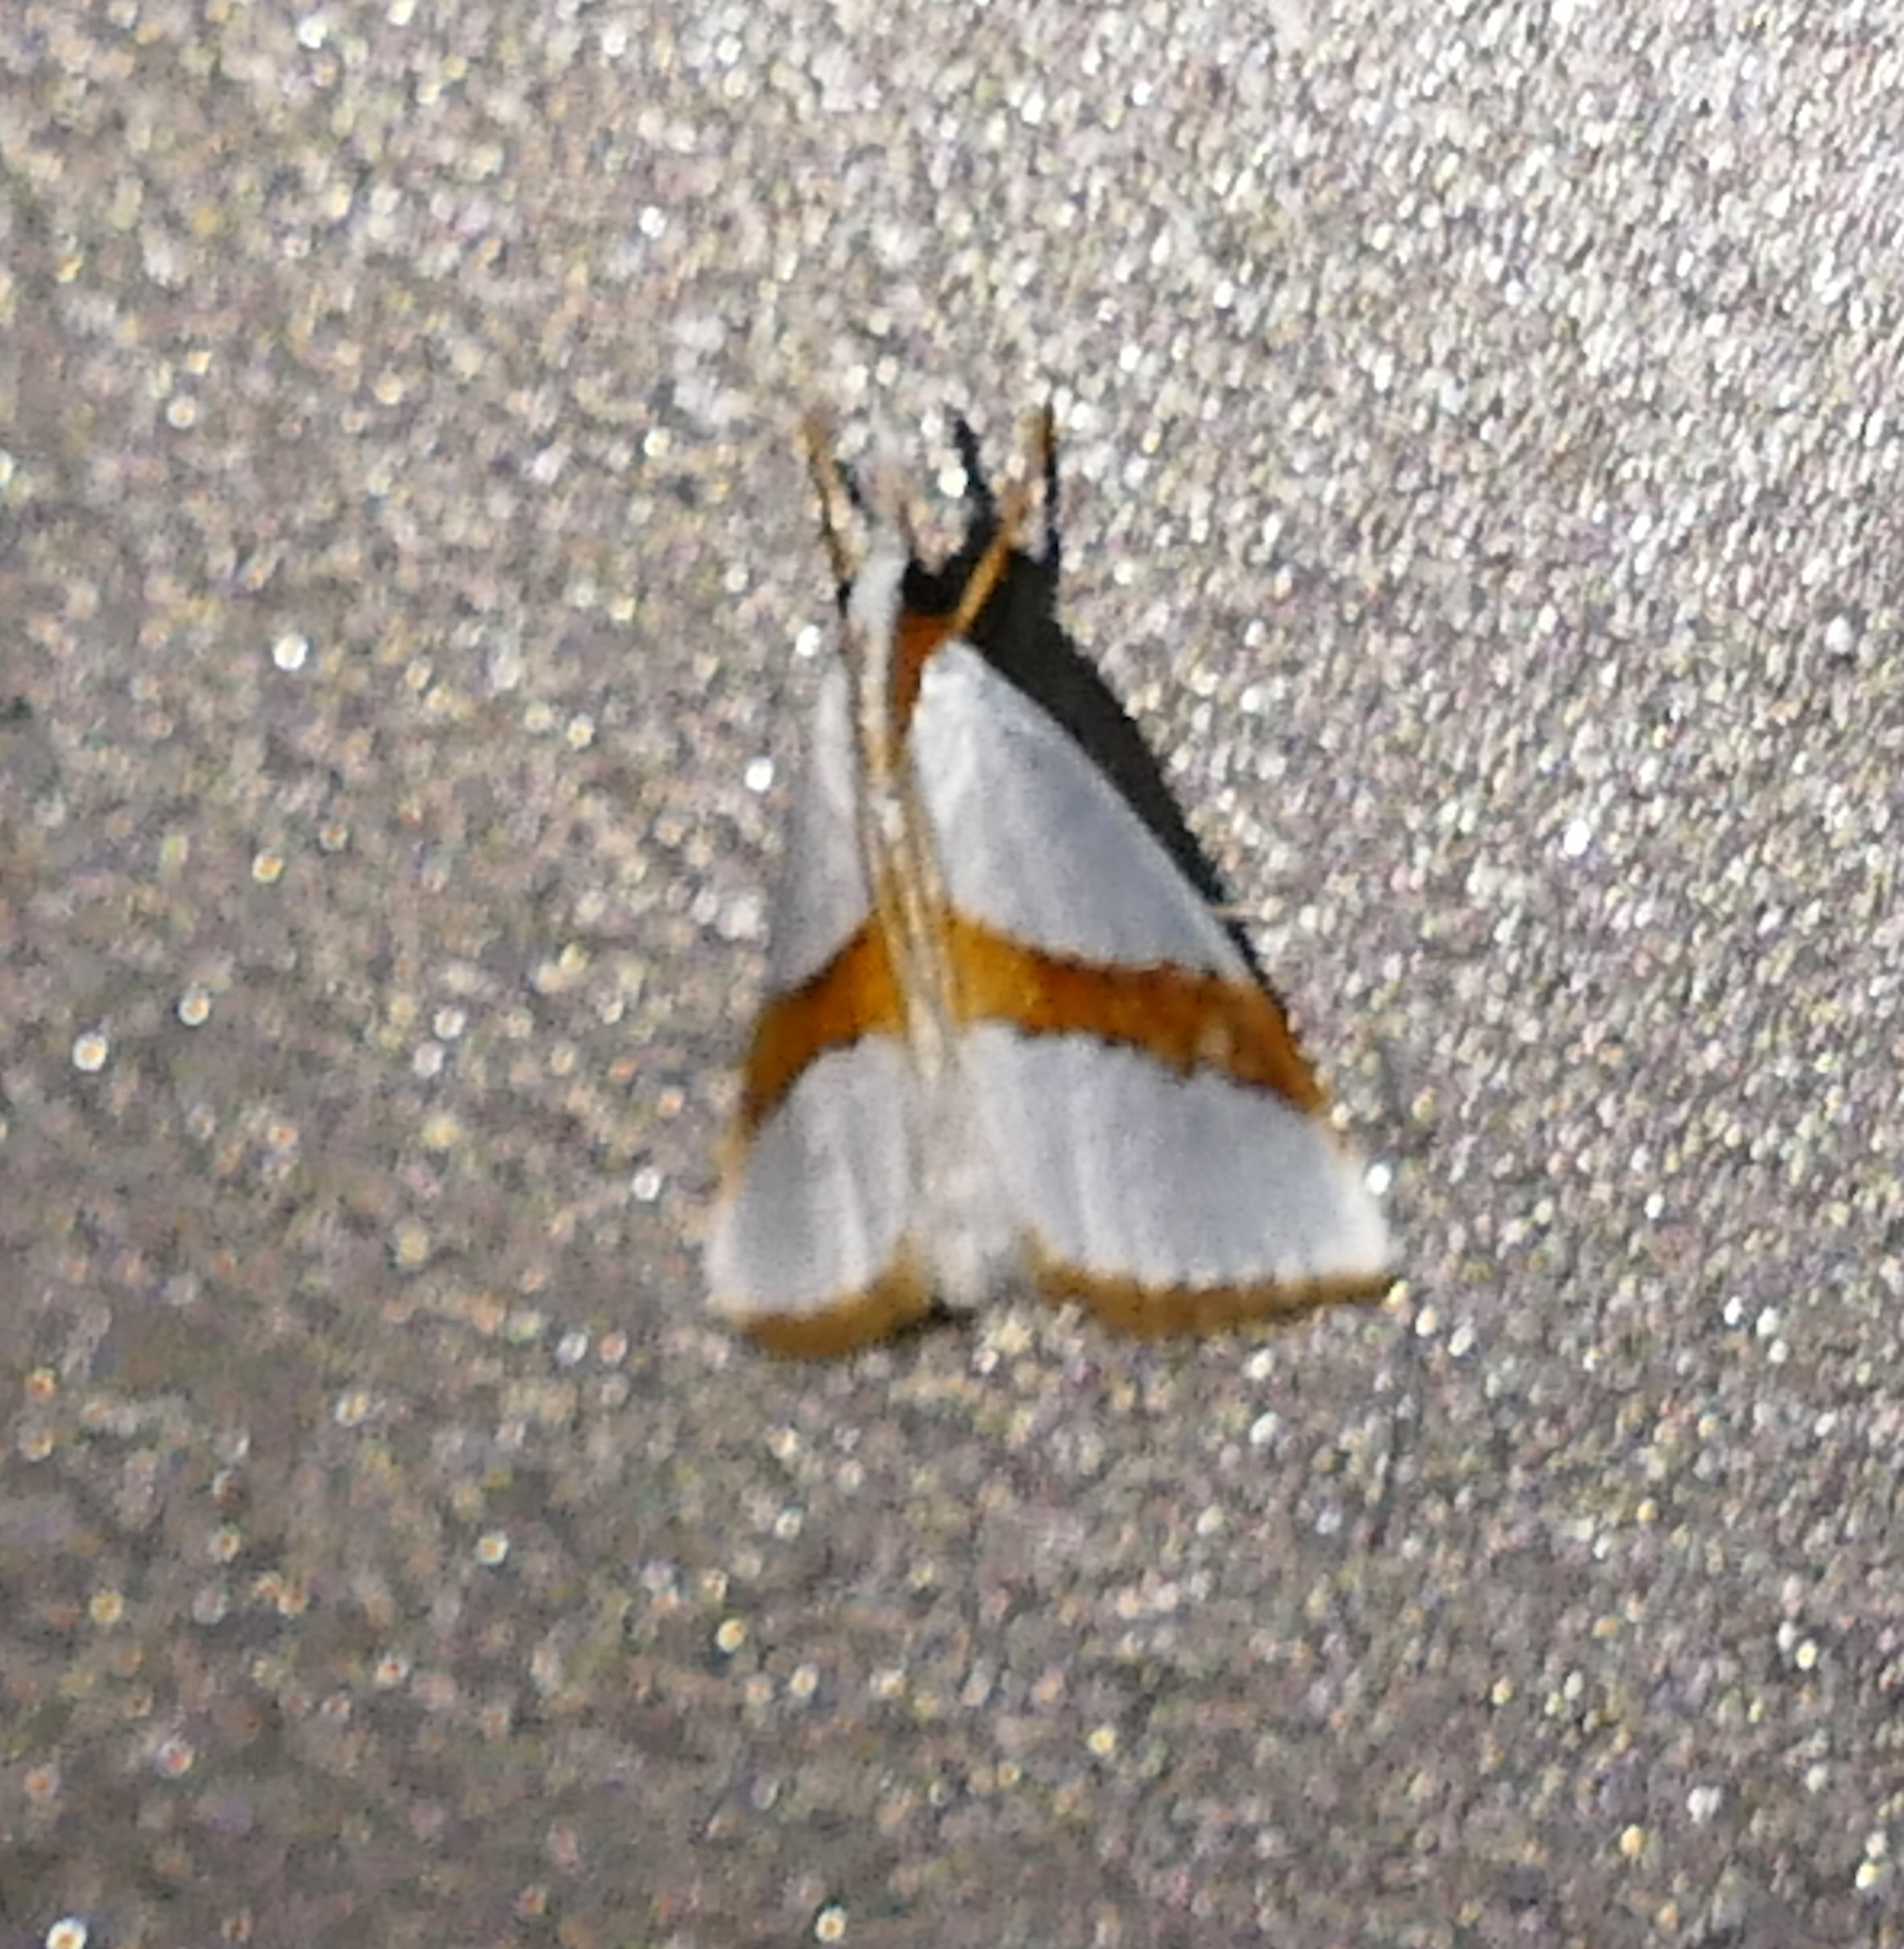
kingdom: Animalia
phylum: Arthropoda
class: Insecta
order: Lepidoptera
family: Crambidae
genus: Vaxi
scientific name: Vaxi critica
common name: Straight-lined vaxi moth
